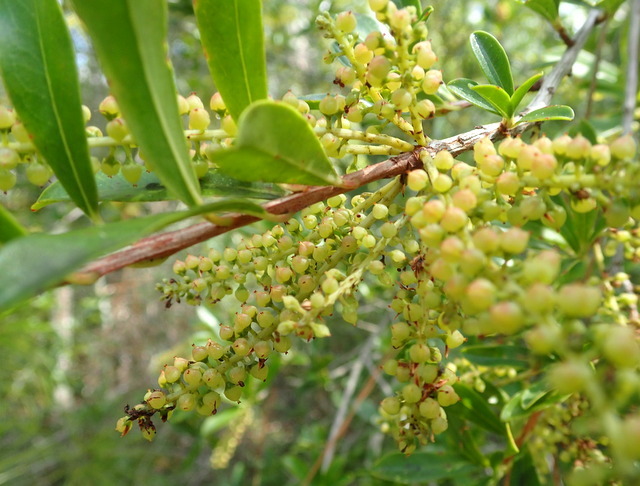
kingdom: Plantae
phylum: Tracheophyta
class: Magnoliopsida
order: Ericales
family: Cyrillaceae
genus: Cyrilla
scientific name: Cyrilla racemiflora
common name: Black titi
